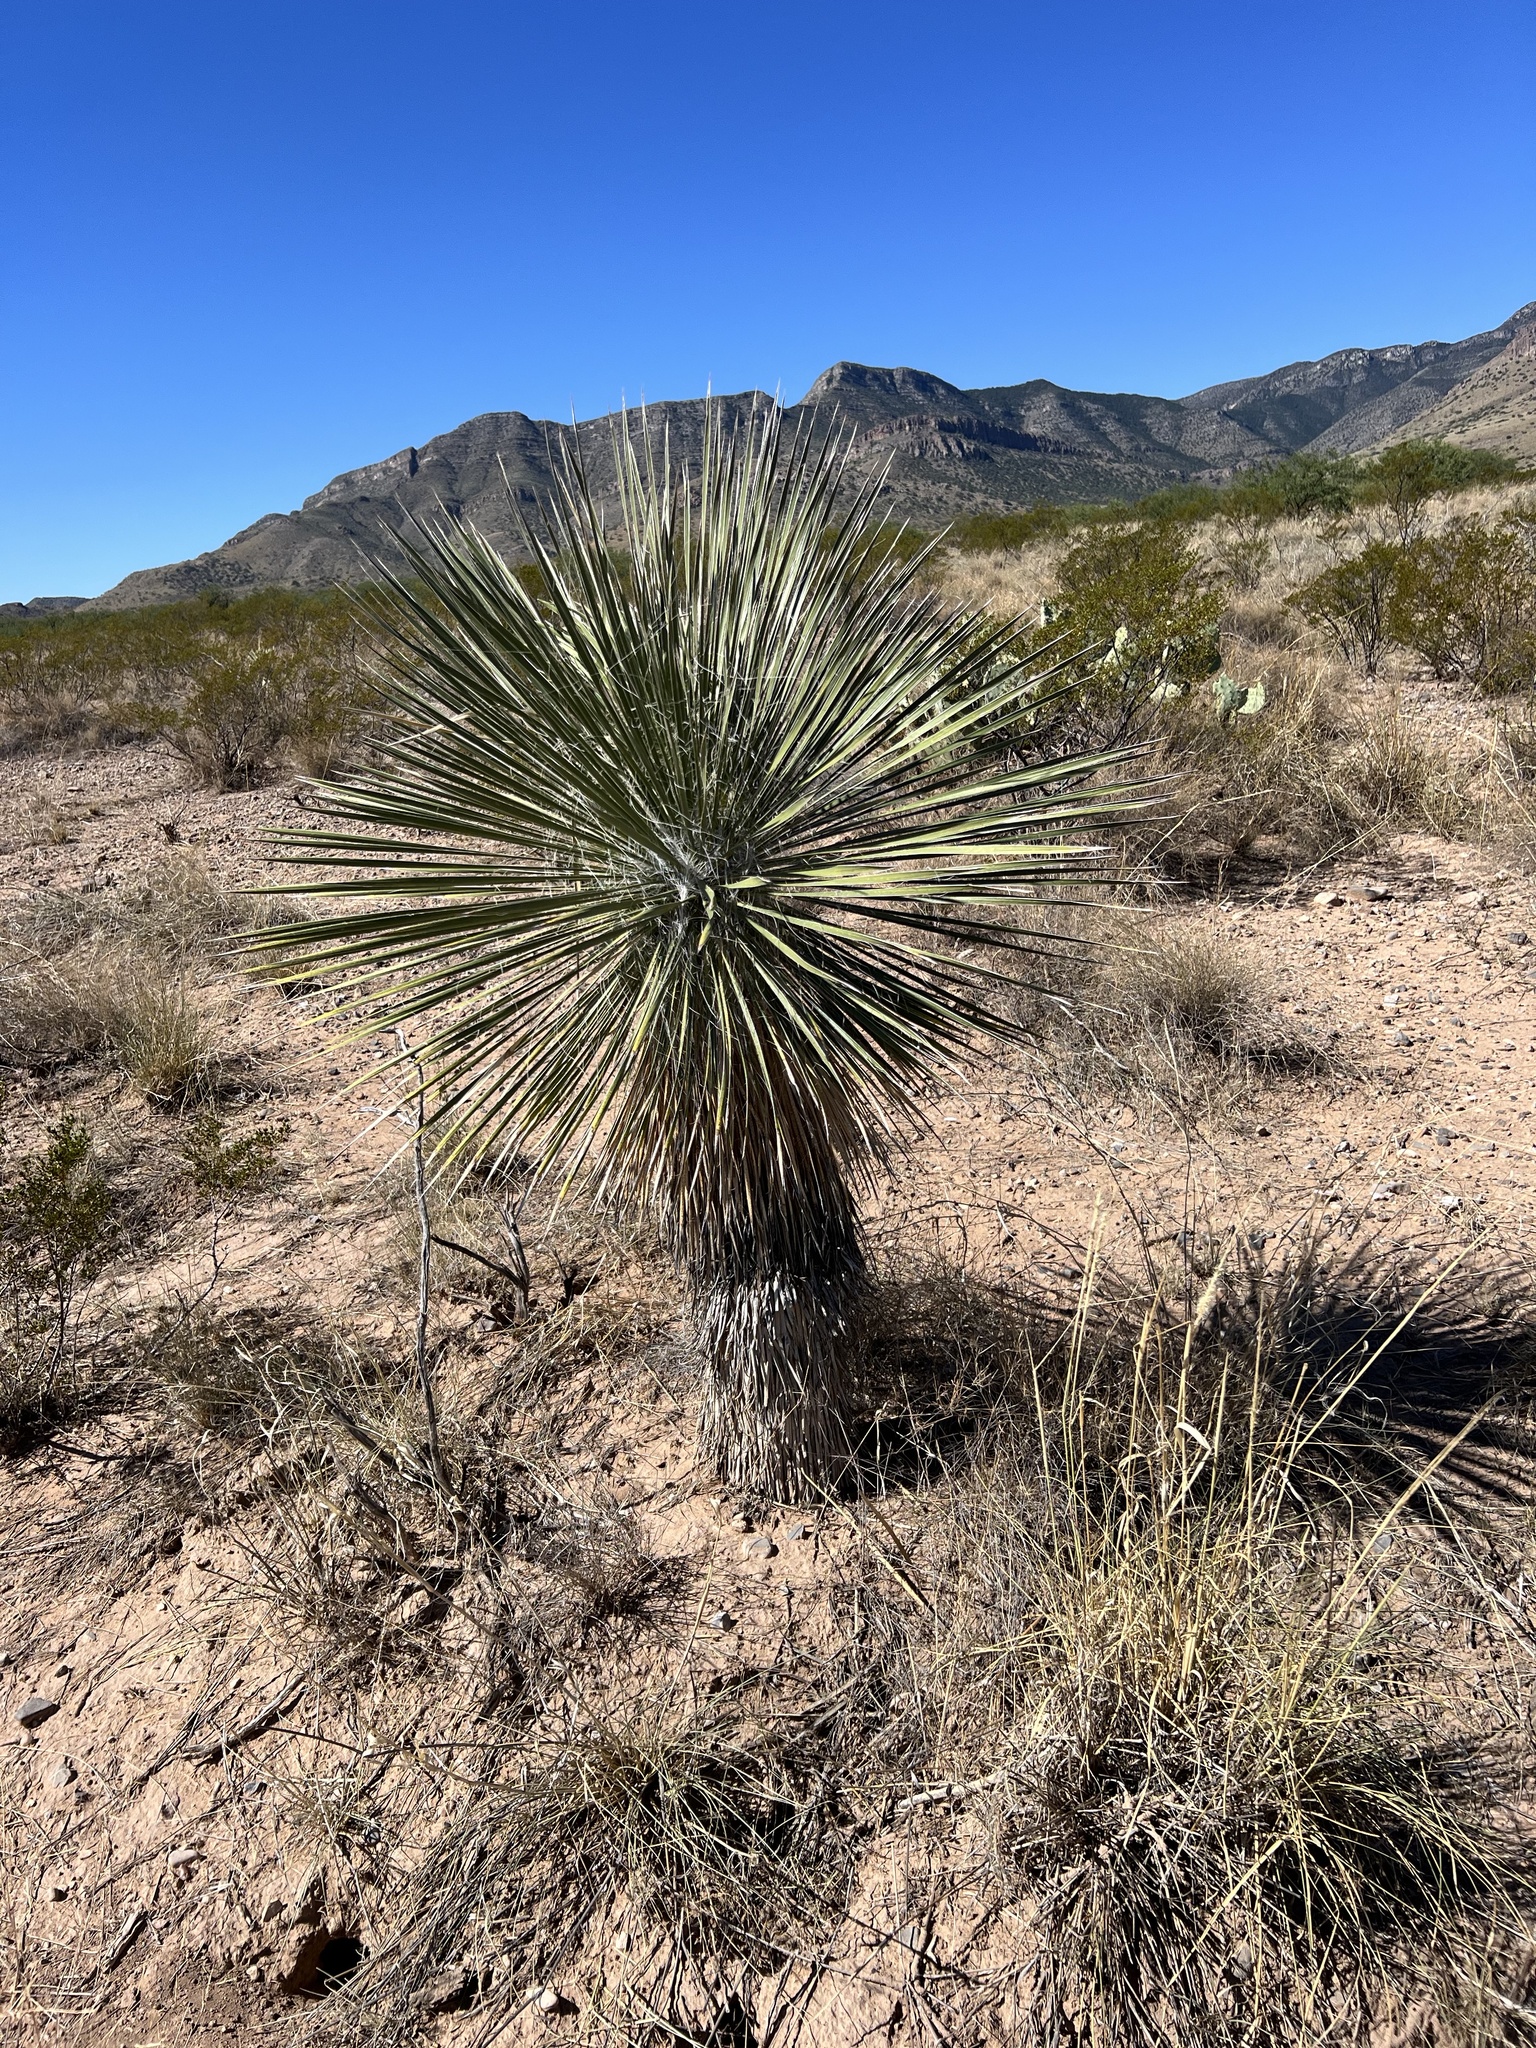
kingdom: Plantae
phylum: Tracheophyta
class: Liliopsida
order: Asparagales
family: Asparagaceae
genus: Yucca
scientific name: Yucca elata
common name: Palmella
